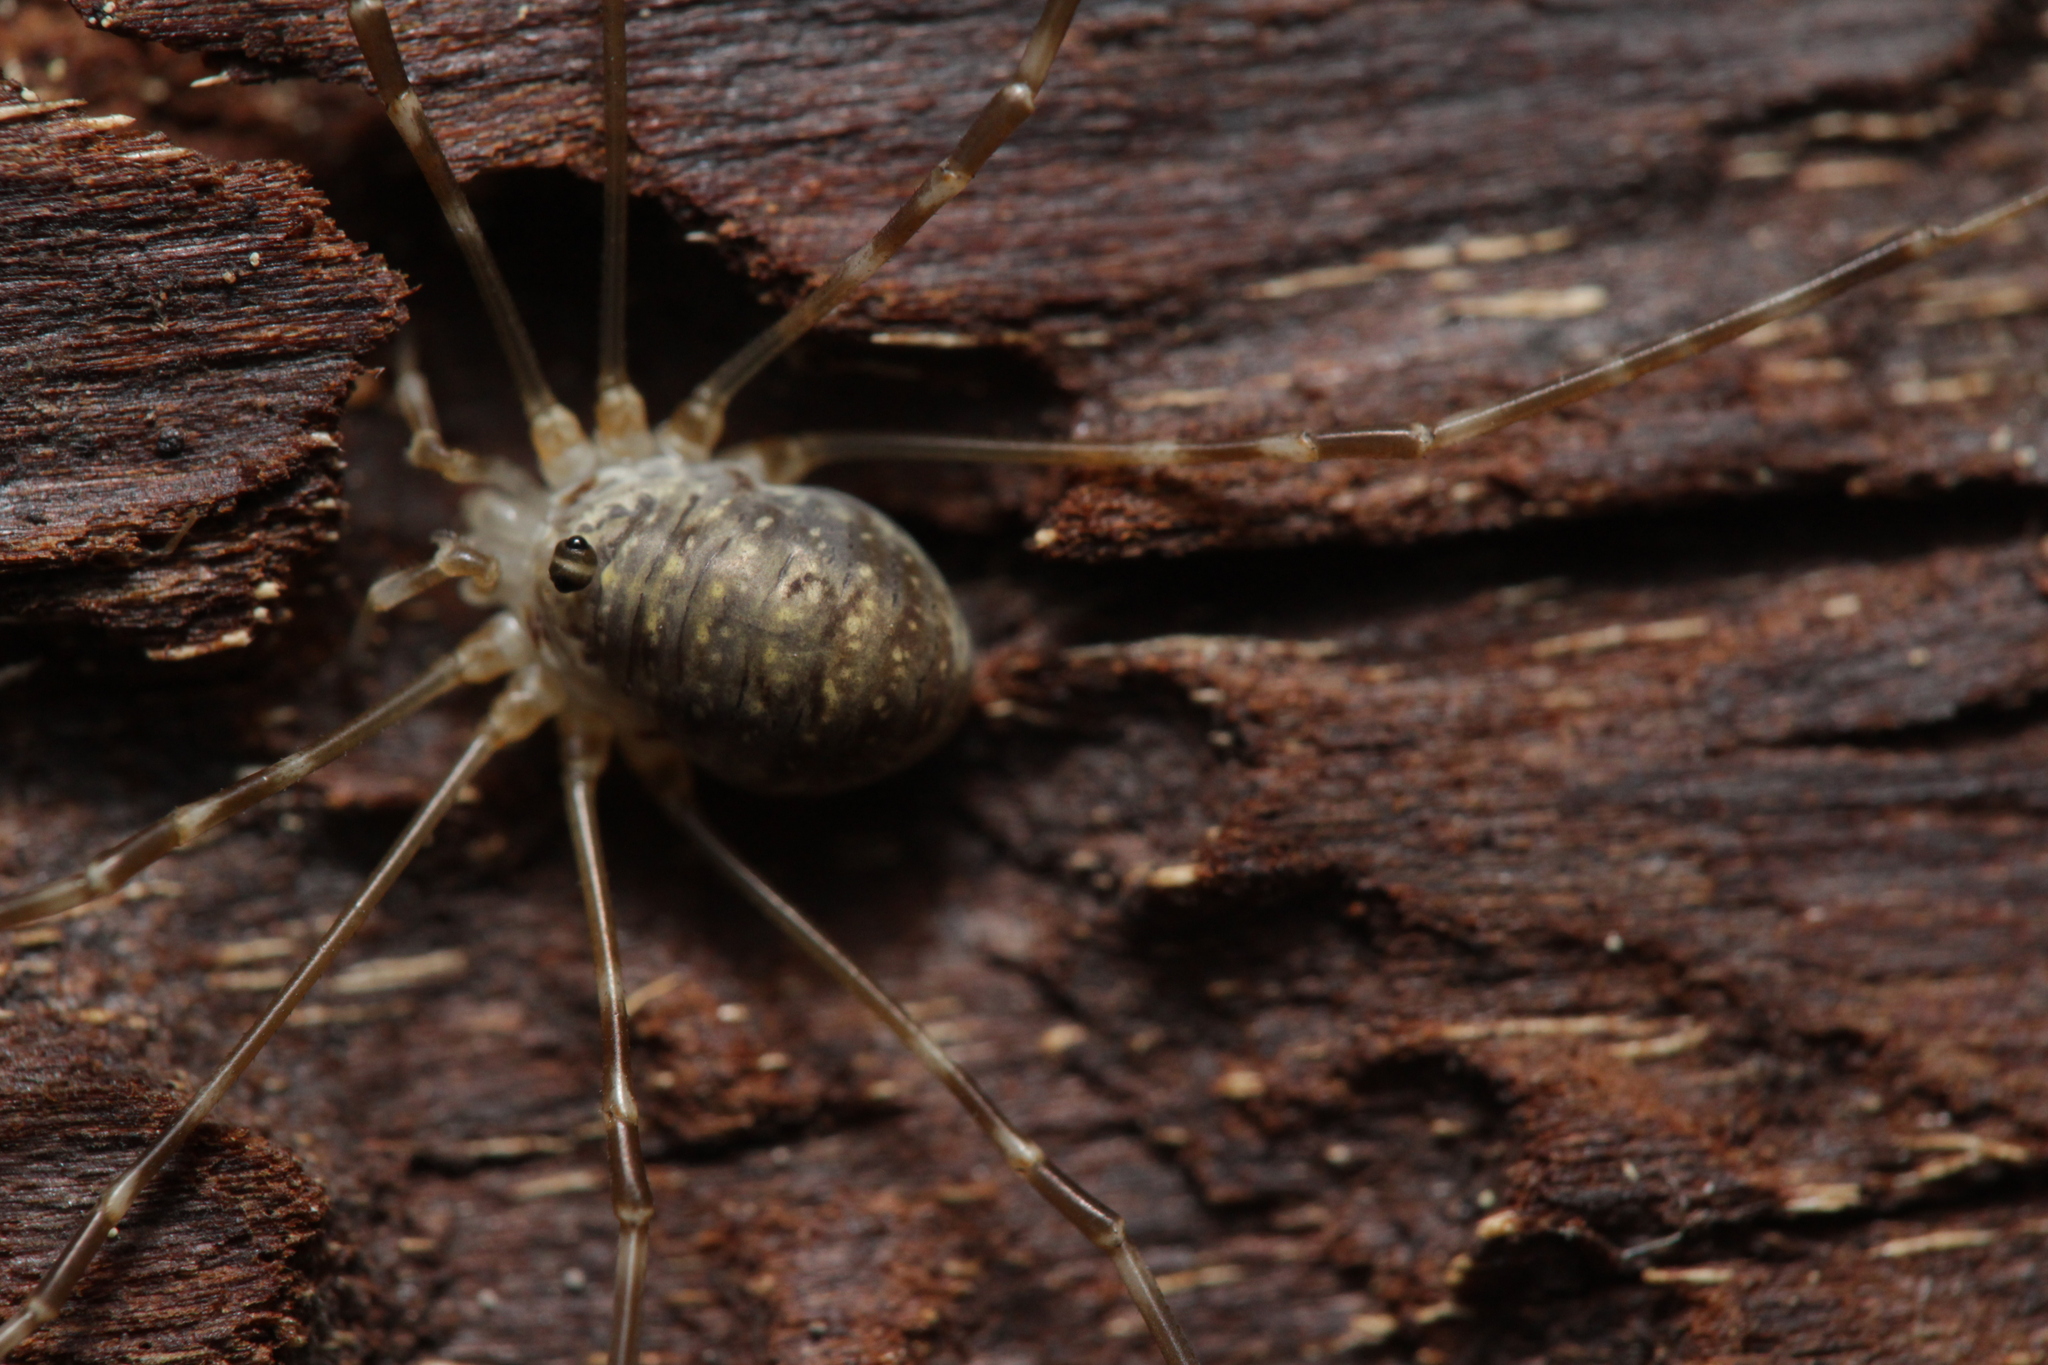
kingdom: Animalia
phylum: Arthropoda
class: Arachnida
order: Opiliones
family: Phalangiidae
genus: Amilenus
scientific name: Amilenus aurantiacus
